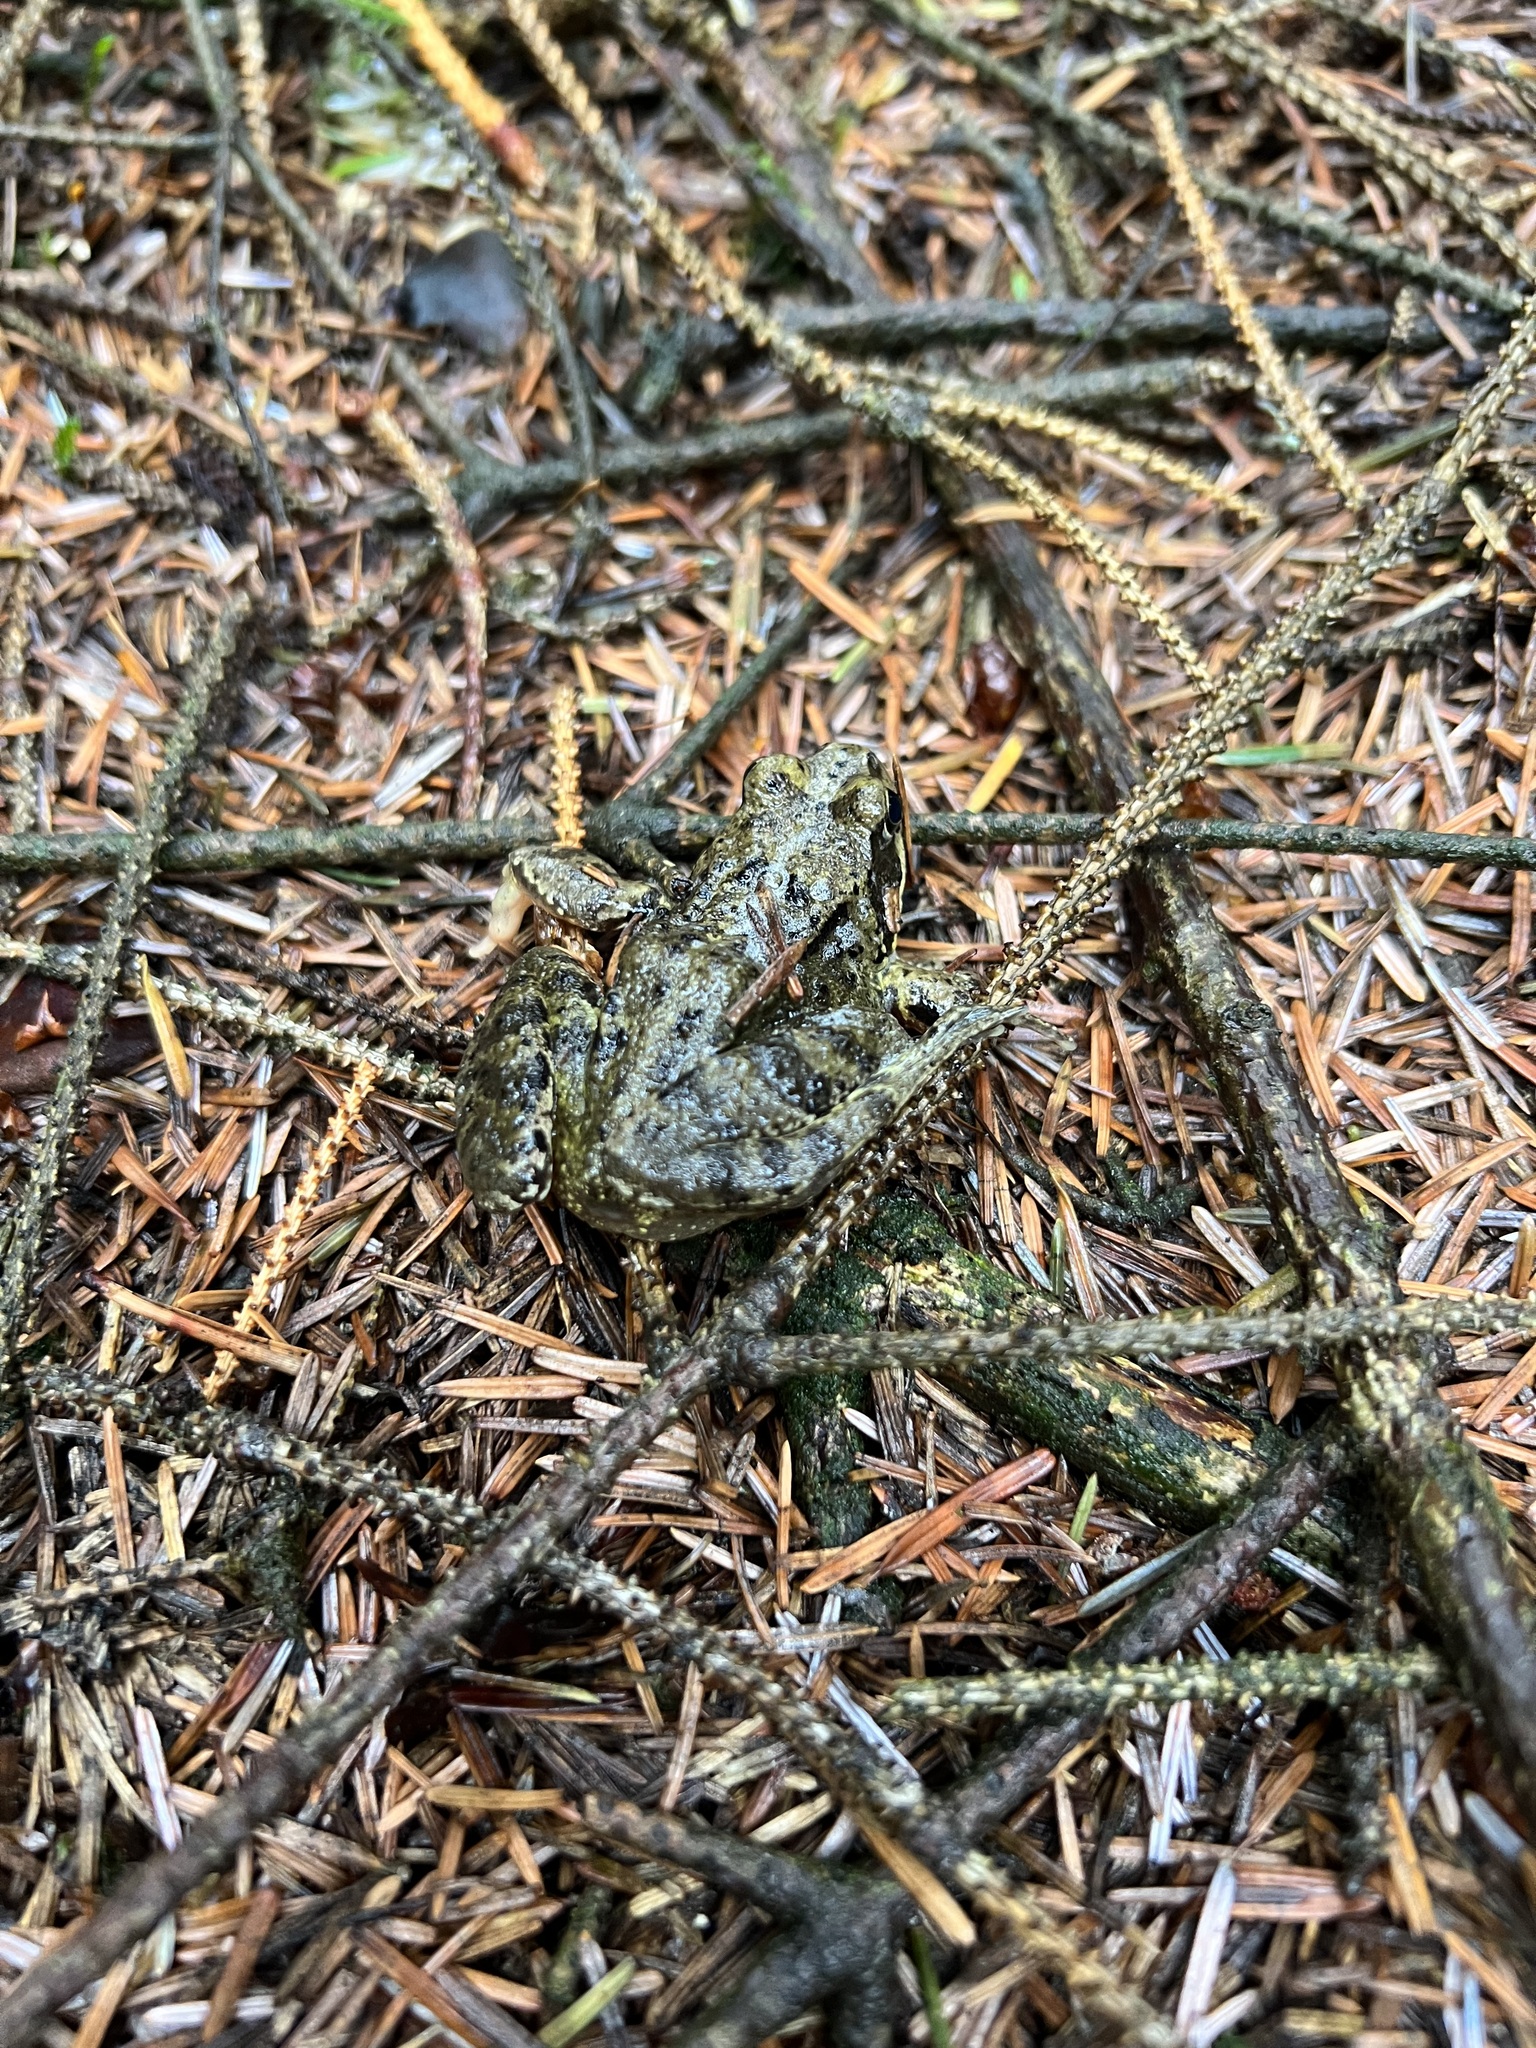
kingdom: Animalia
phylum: Chordata
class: Amphibia
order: Anura
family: Ranidae
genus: Rana
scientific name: Rana temporaria
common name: Common frog
